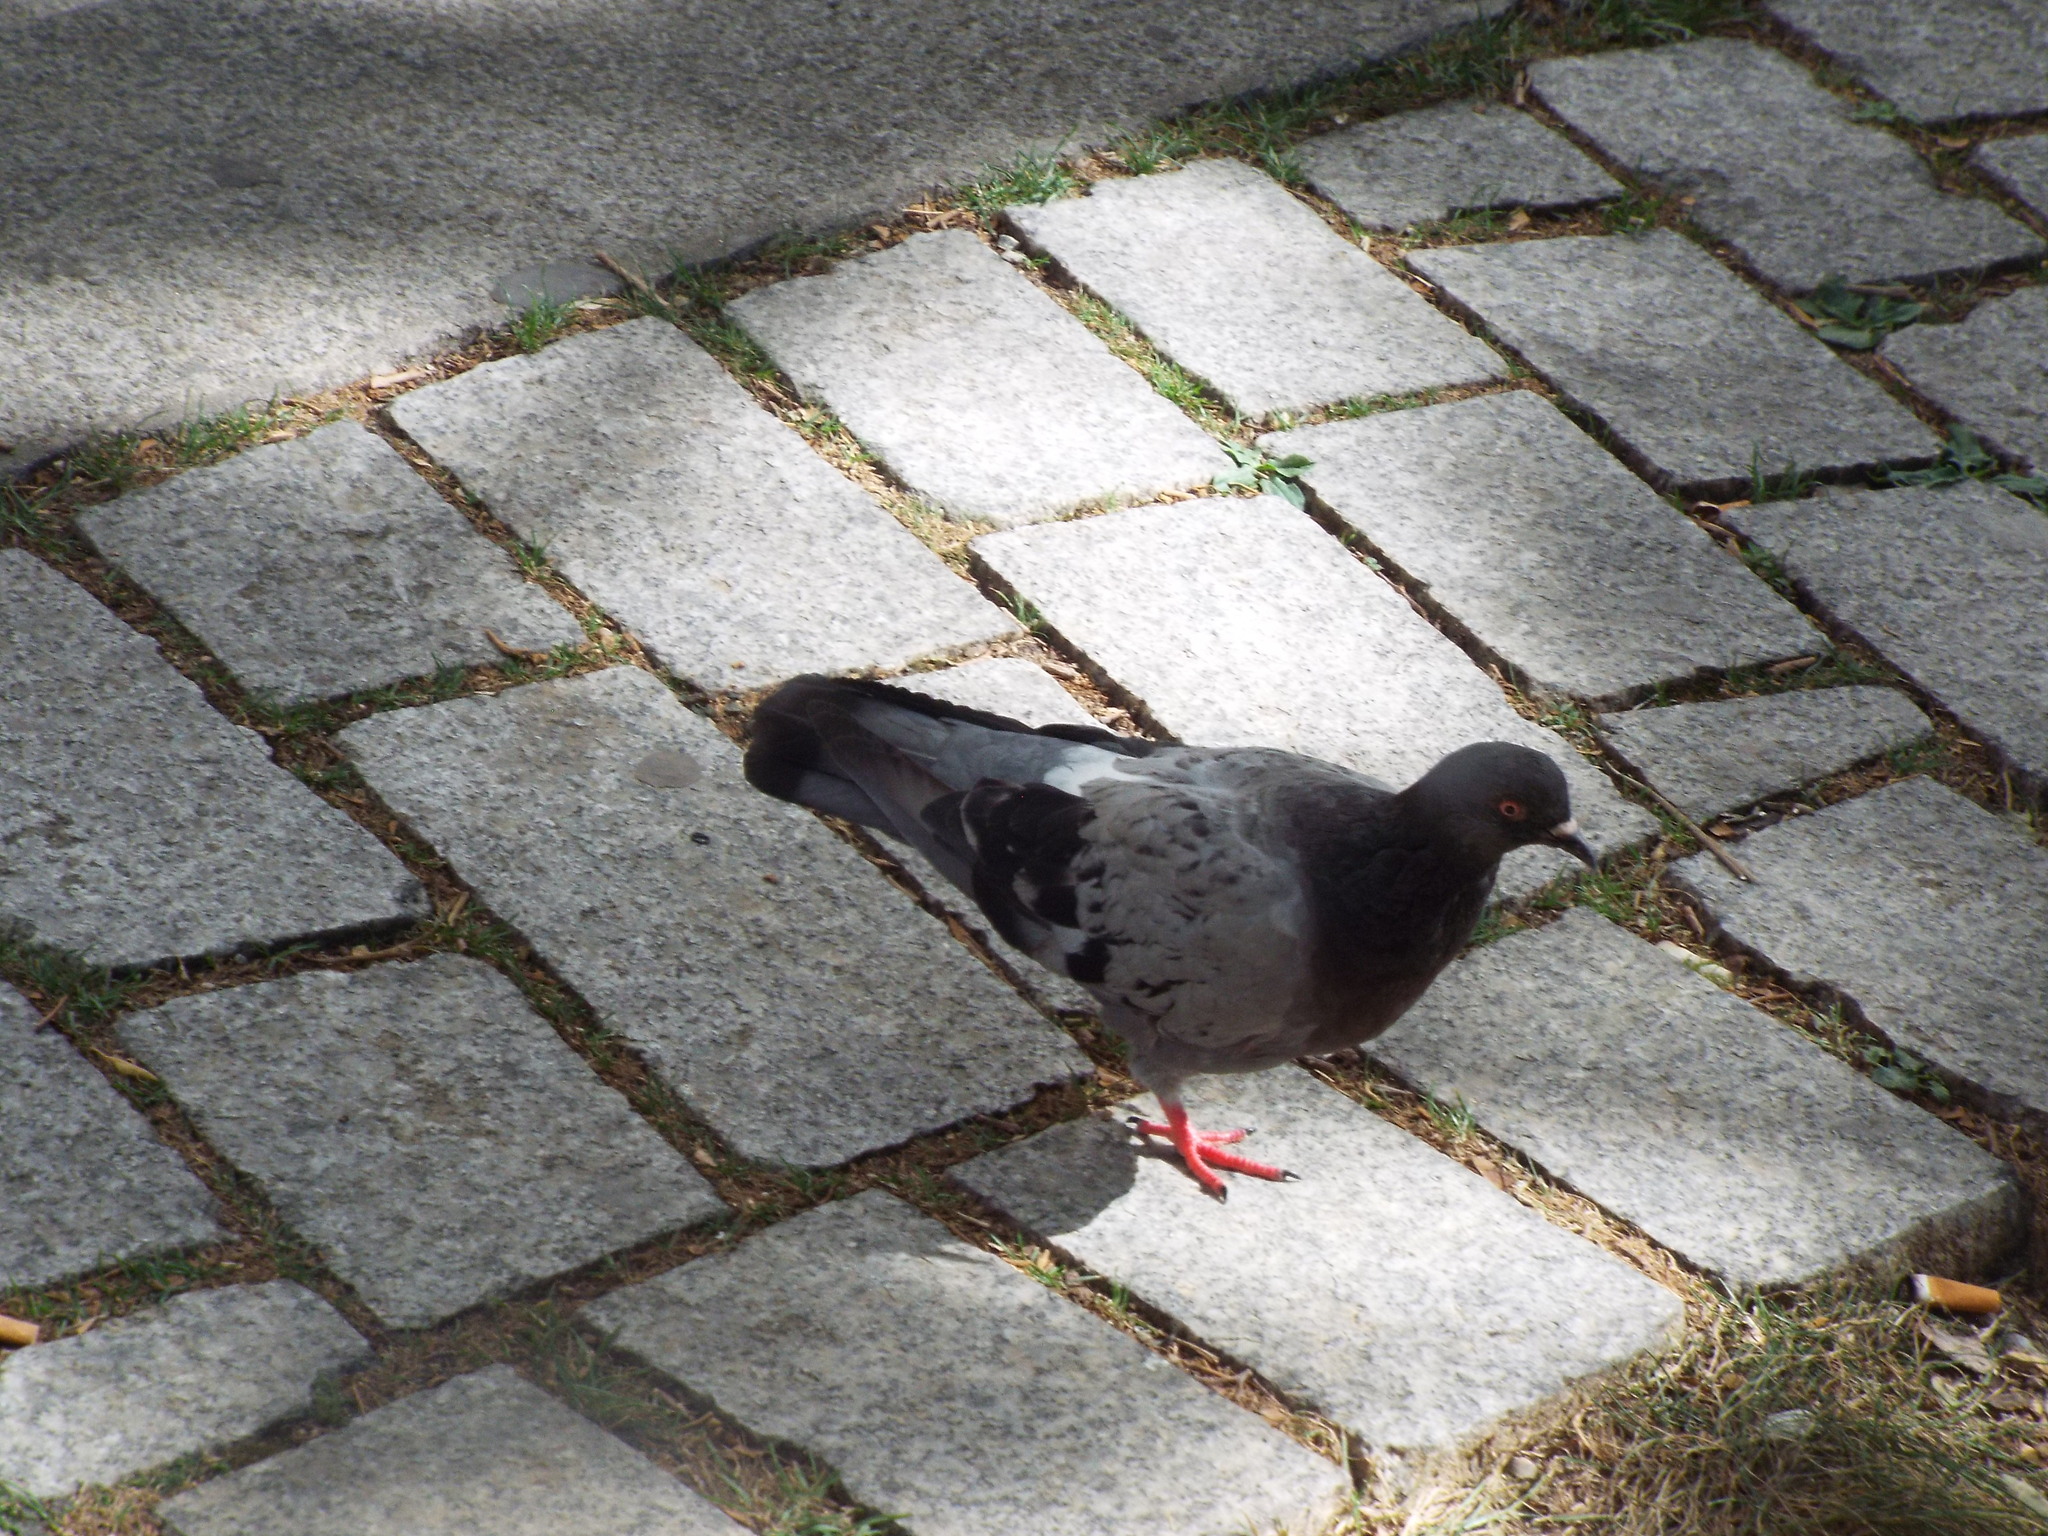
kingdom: Animalia
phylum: Chordata
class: Aves
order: Columbiformes
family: Columbidae
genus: Columba
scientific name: Columba livia
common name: Rock pigeon
